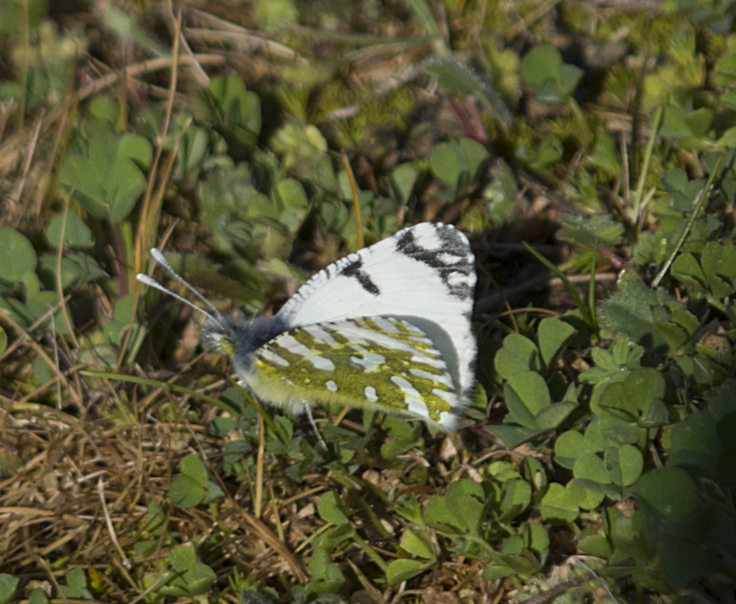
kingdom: Animalia
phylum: Arthropoda
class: Insecta
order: Lepidoptera
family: Pieridae
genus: Euchloe
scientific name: Euchloe ausonia
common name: Eastern dappled white
